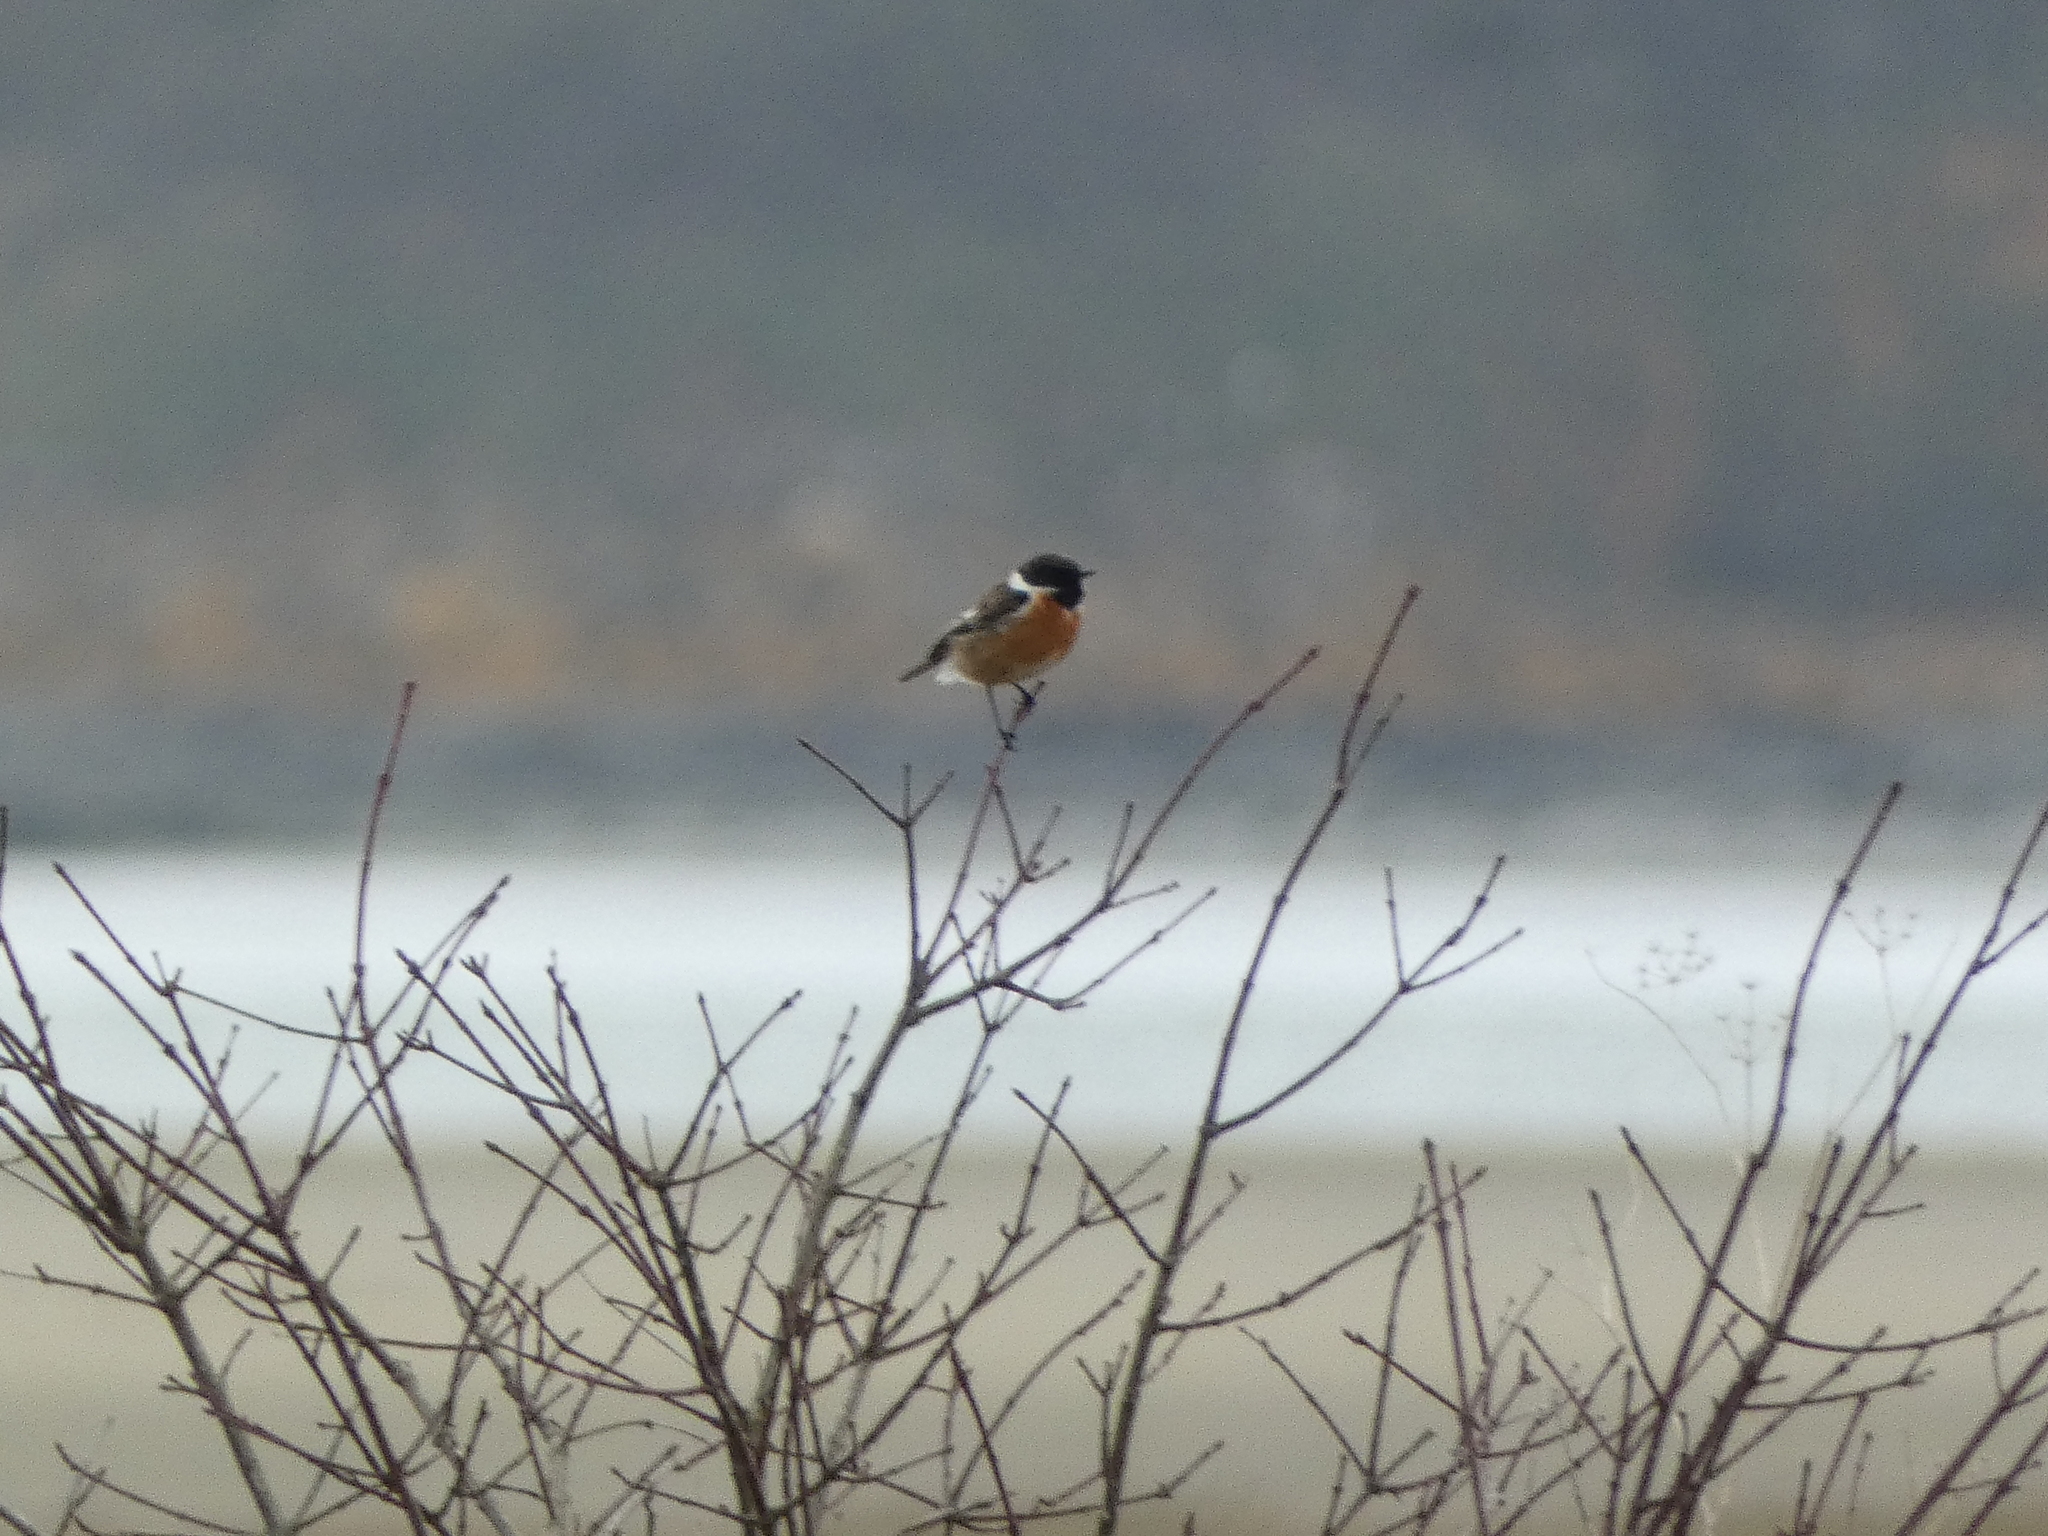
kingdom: Animalia
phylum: Chordata
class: Aves
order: Passeriformes
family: Muscicapidae
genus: Saxicola
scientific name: Saxicola rubicola
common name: European stonechat
